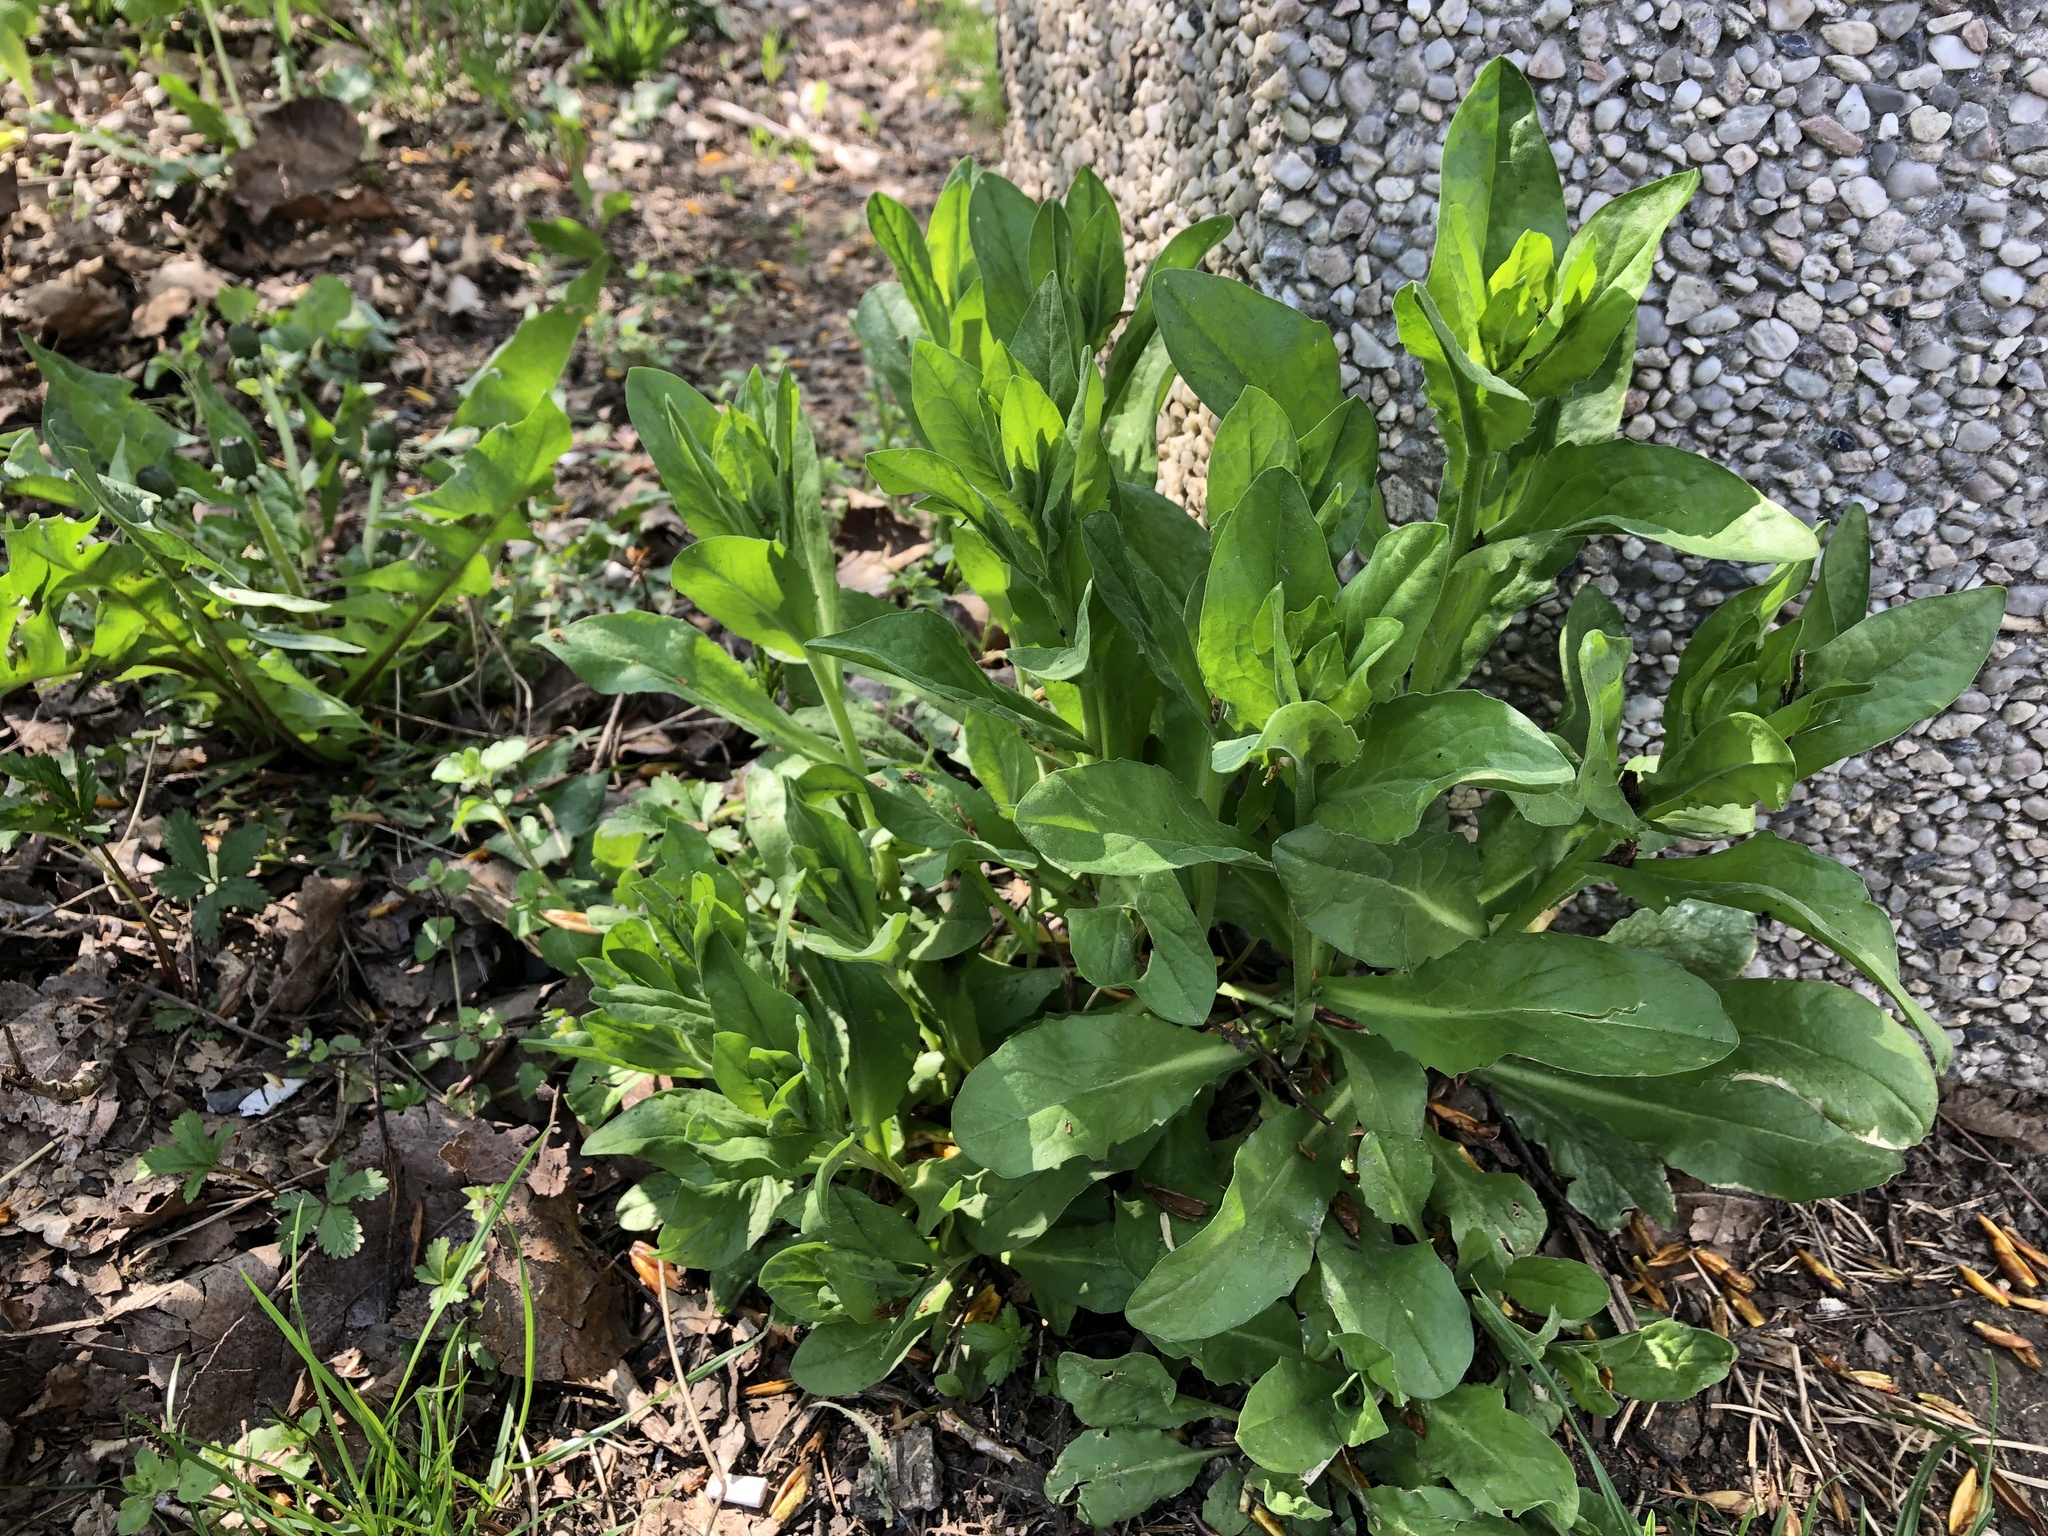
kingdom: Plantae
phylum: Tracheophyta
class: Magnoliopsida
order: Brassicales
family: Brassicaceae
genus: Lepidium
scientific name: Lepidium draba
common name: Hoary cress
